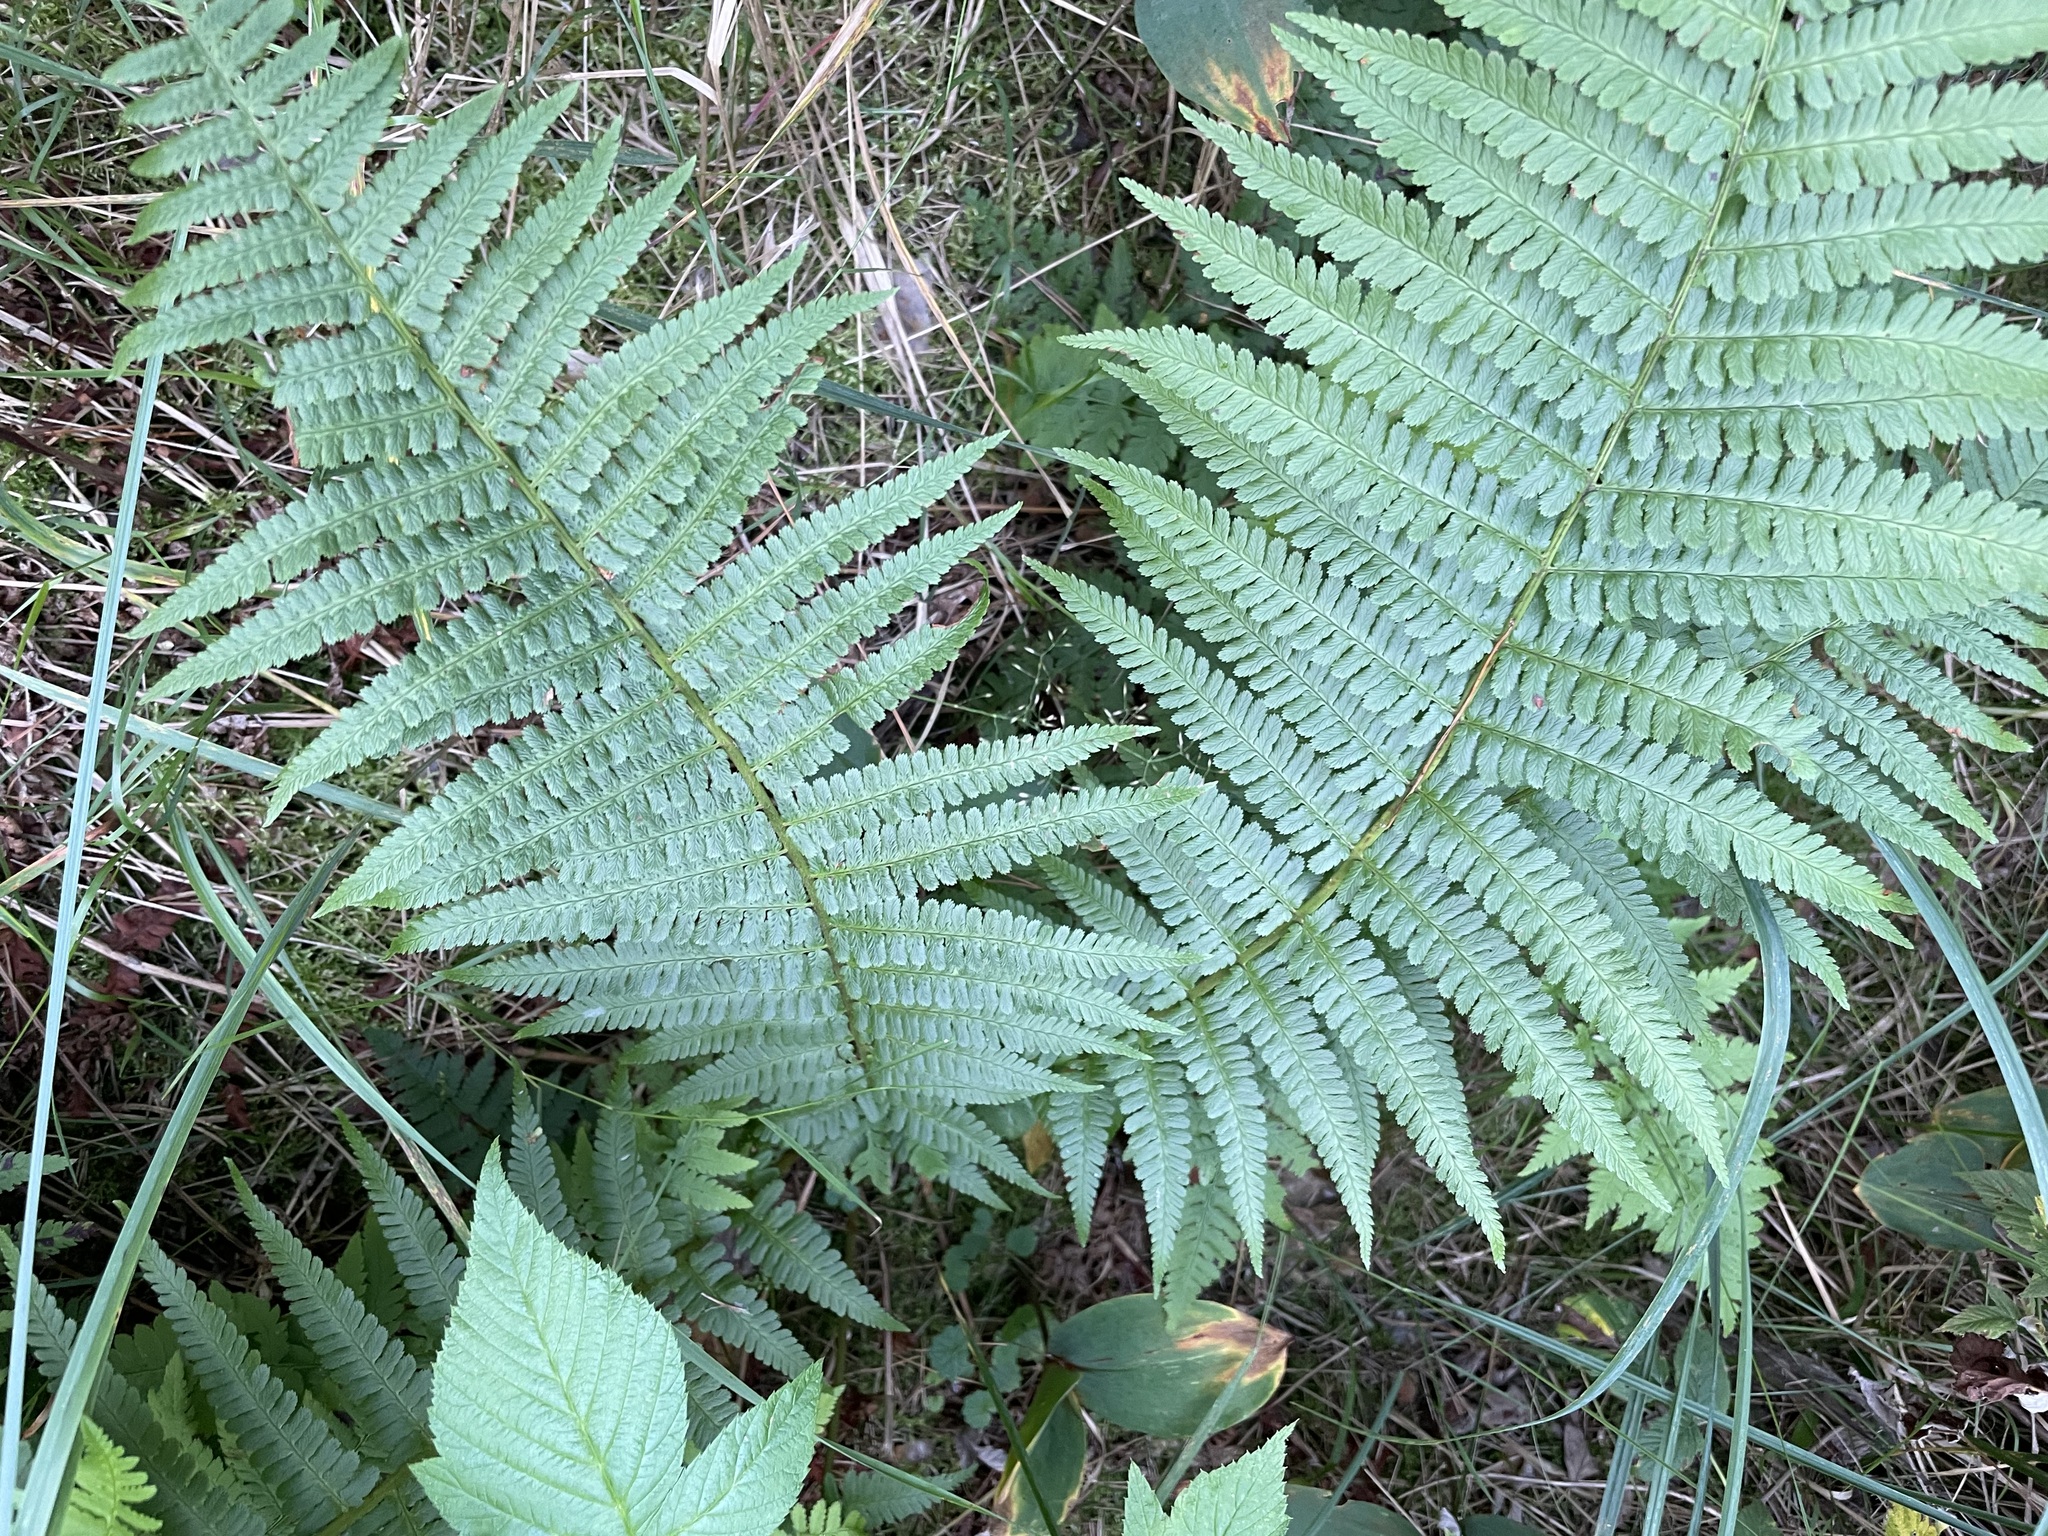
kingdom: Plantae
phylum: Tracheophyta
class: Polypodiopsida
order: Polypodiales
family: Dryopteridaceae
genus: Dryopteris
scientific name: Dryopteris filix-mas
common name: Male fern
